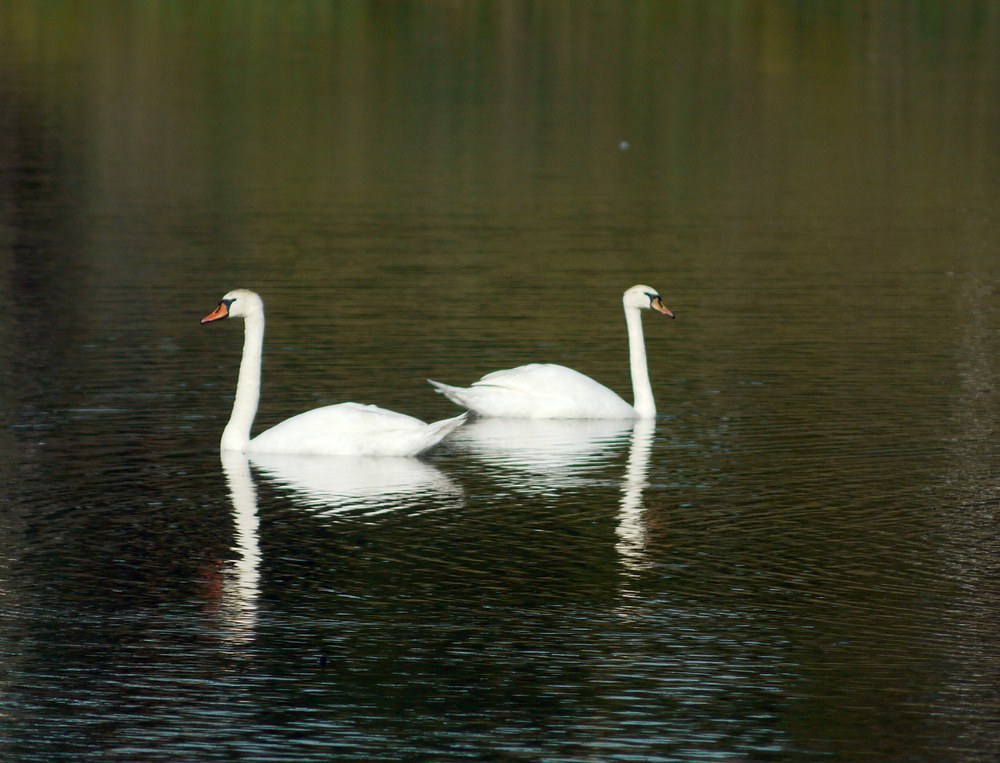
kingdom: Animalia
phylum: Chordata
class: Aves
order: Anseriformes
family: Anatidae
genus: Cygnus
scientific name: Cygnus olor
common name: Mute swan
